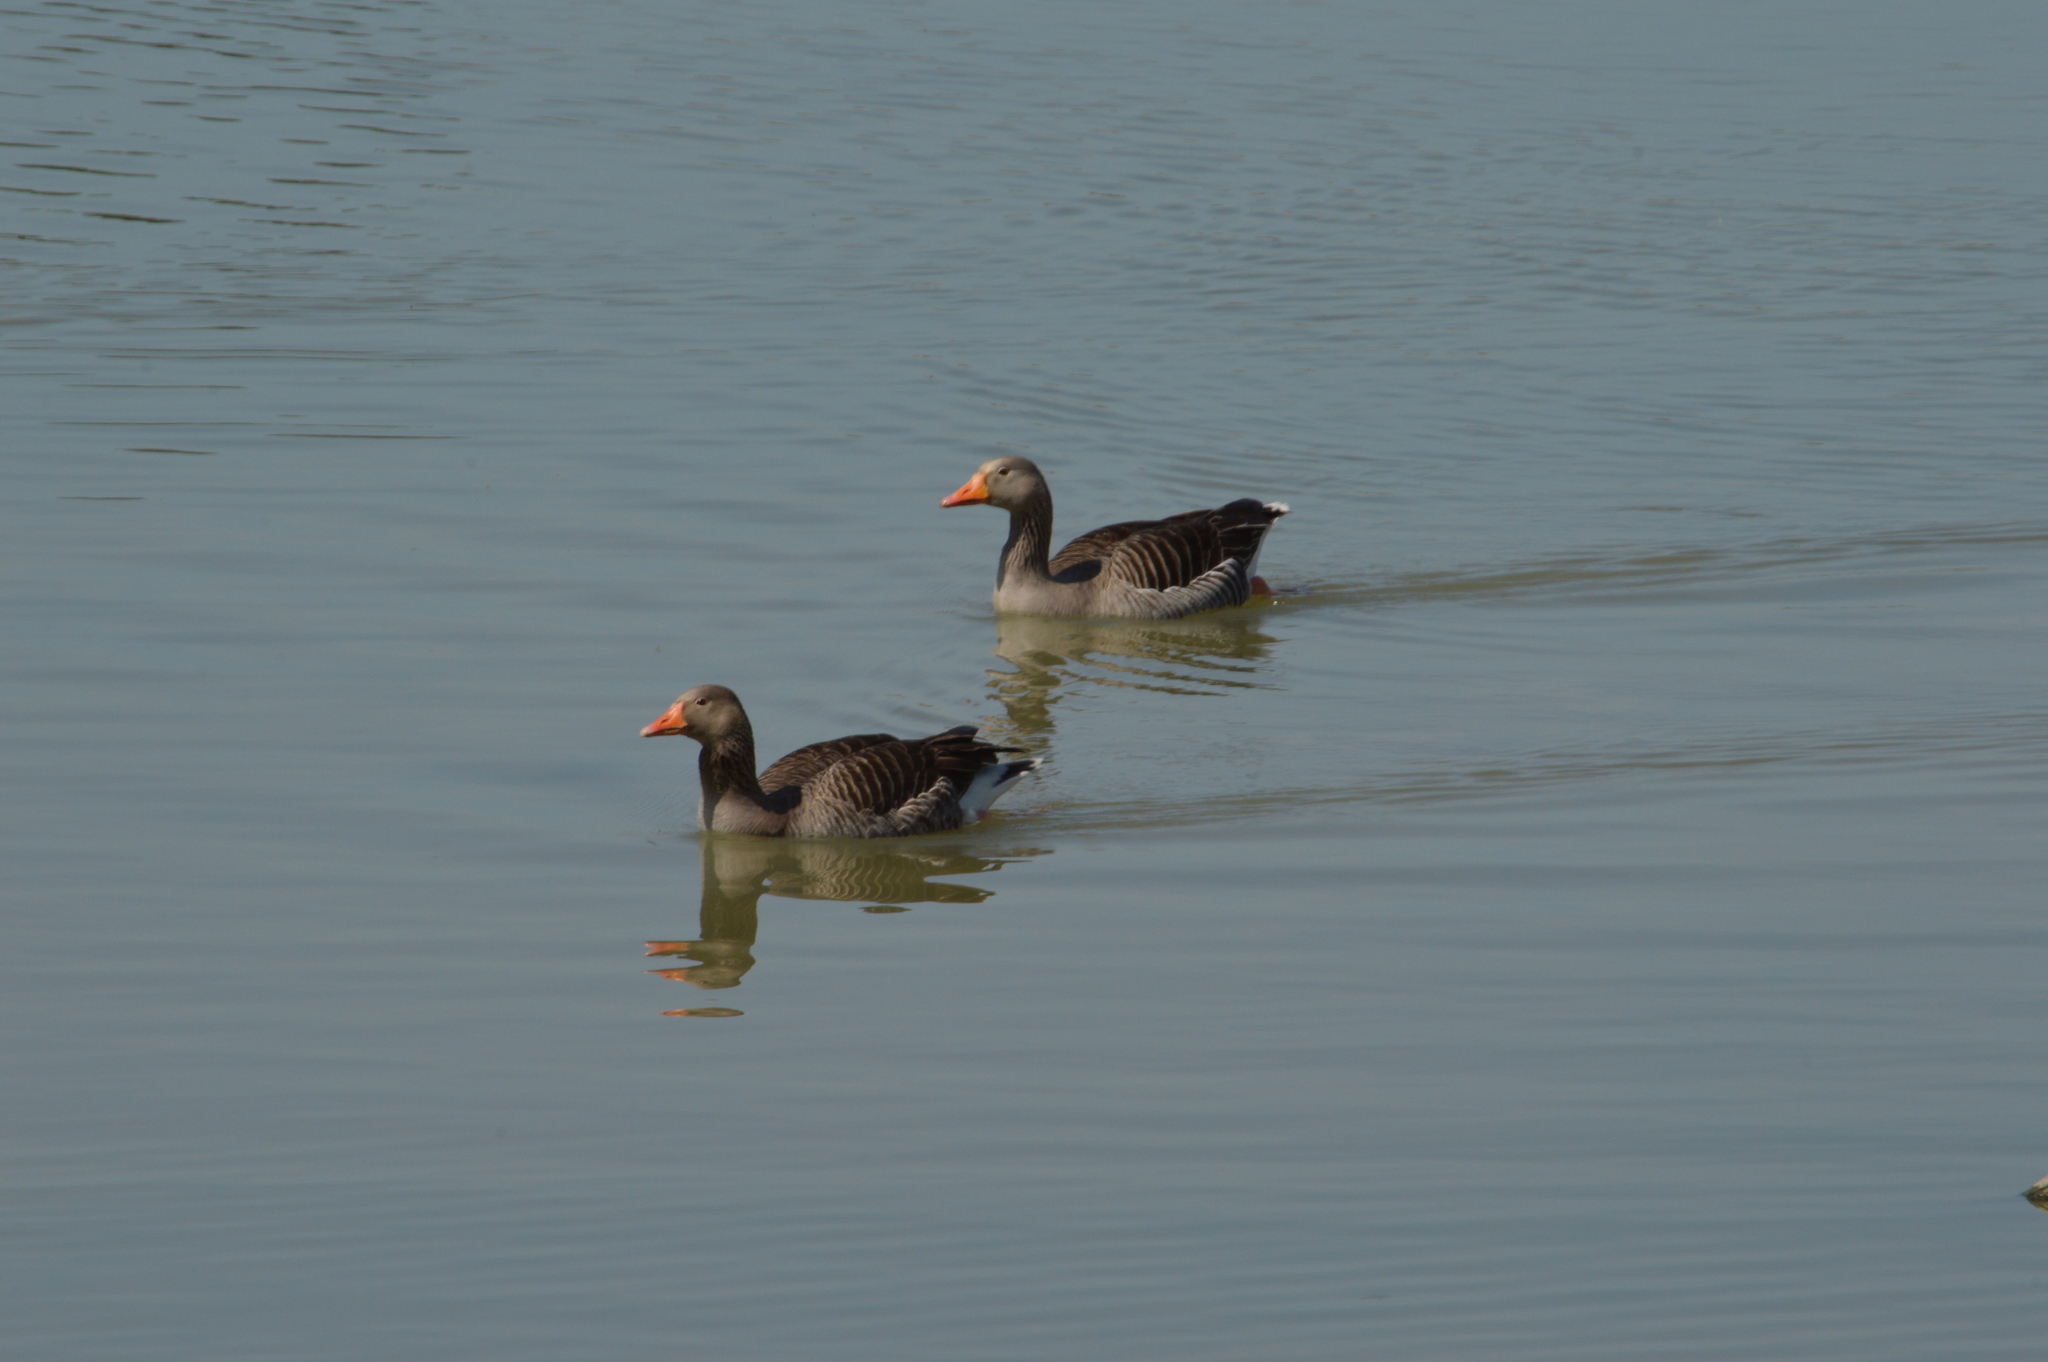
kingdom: Animalia
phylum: Chordata
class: Aves
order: Anseriformes
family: Anatidae
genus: Anser
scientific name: Anser anser
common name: Greylag goose
